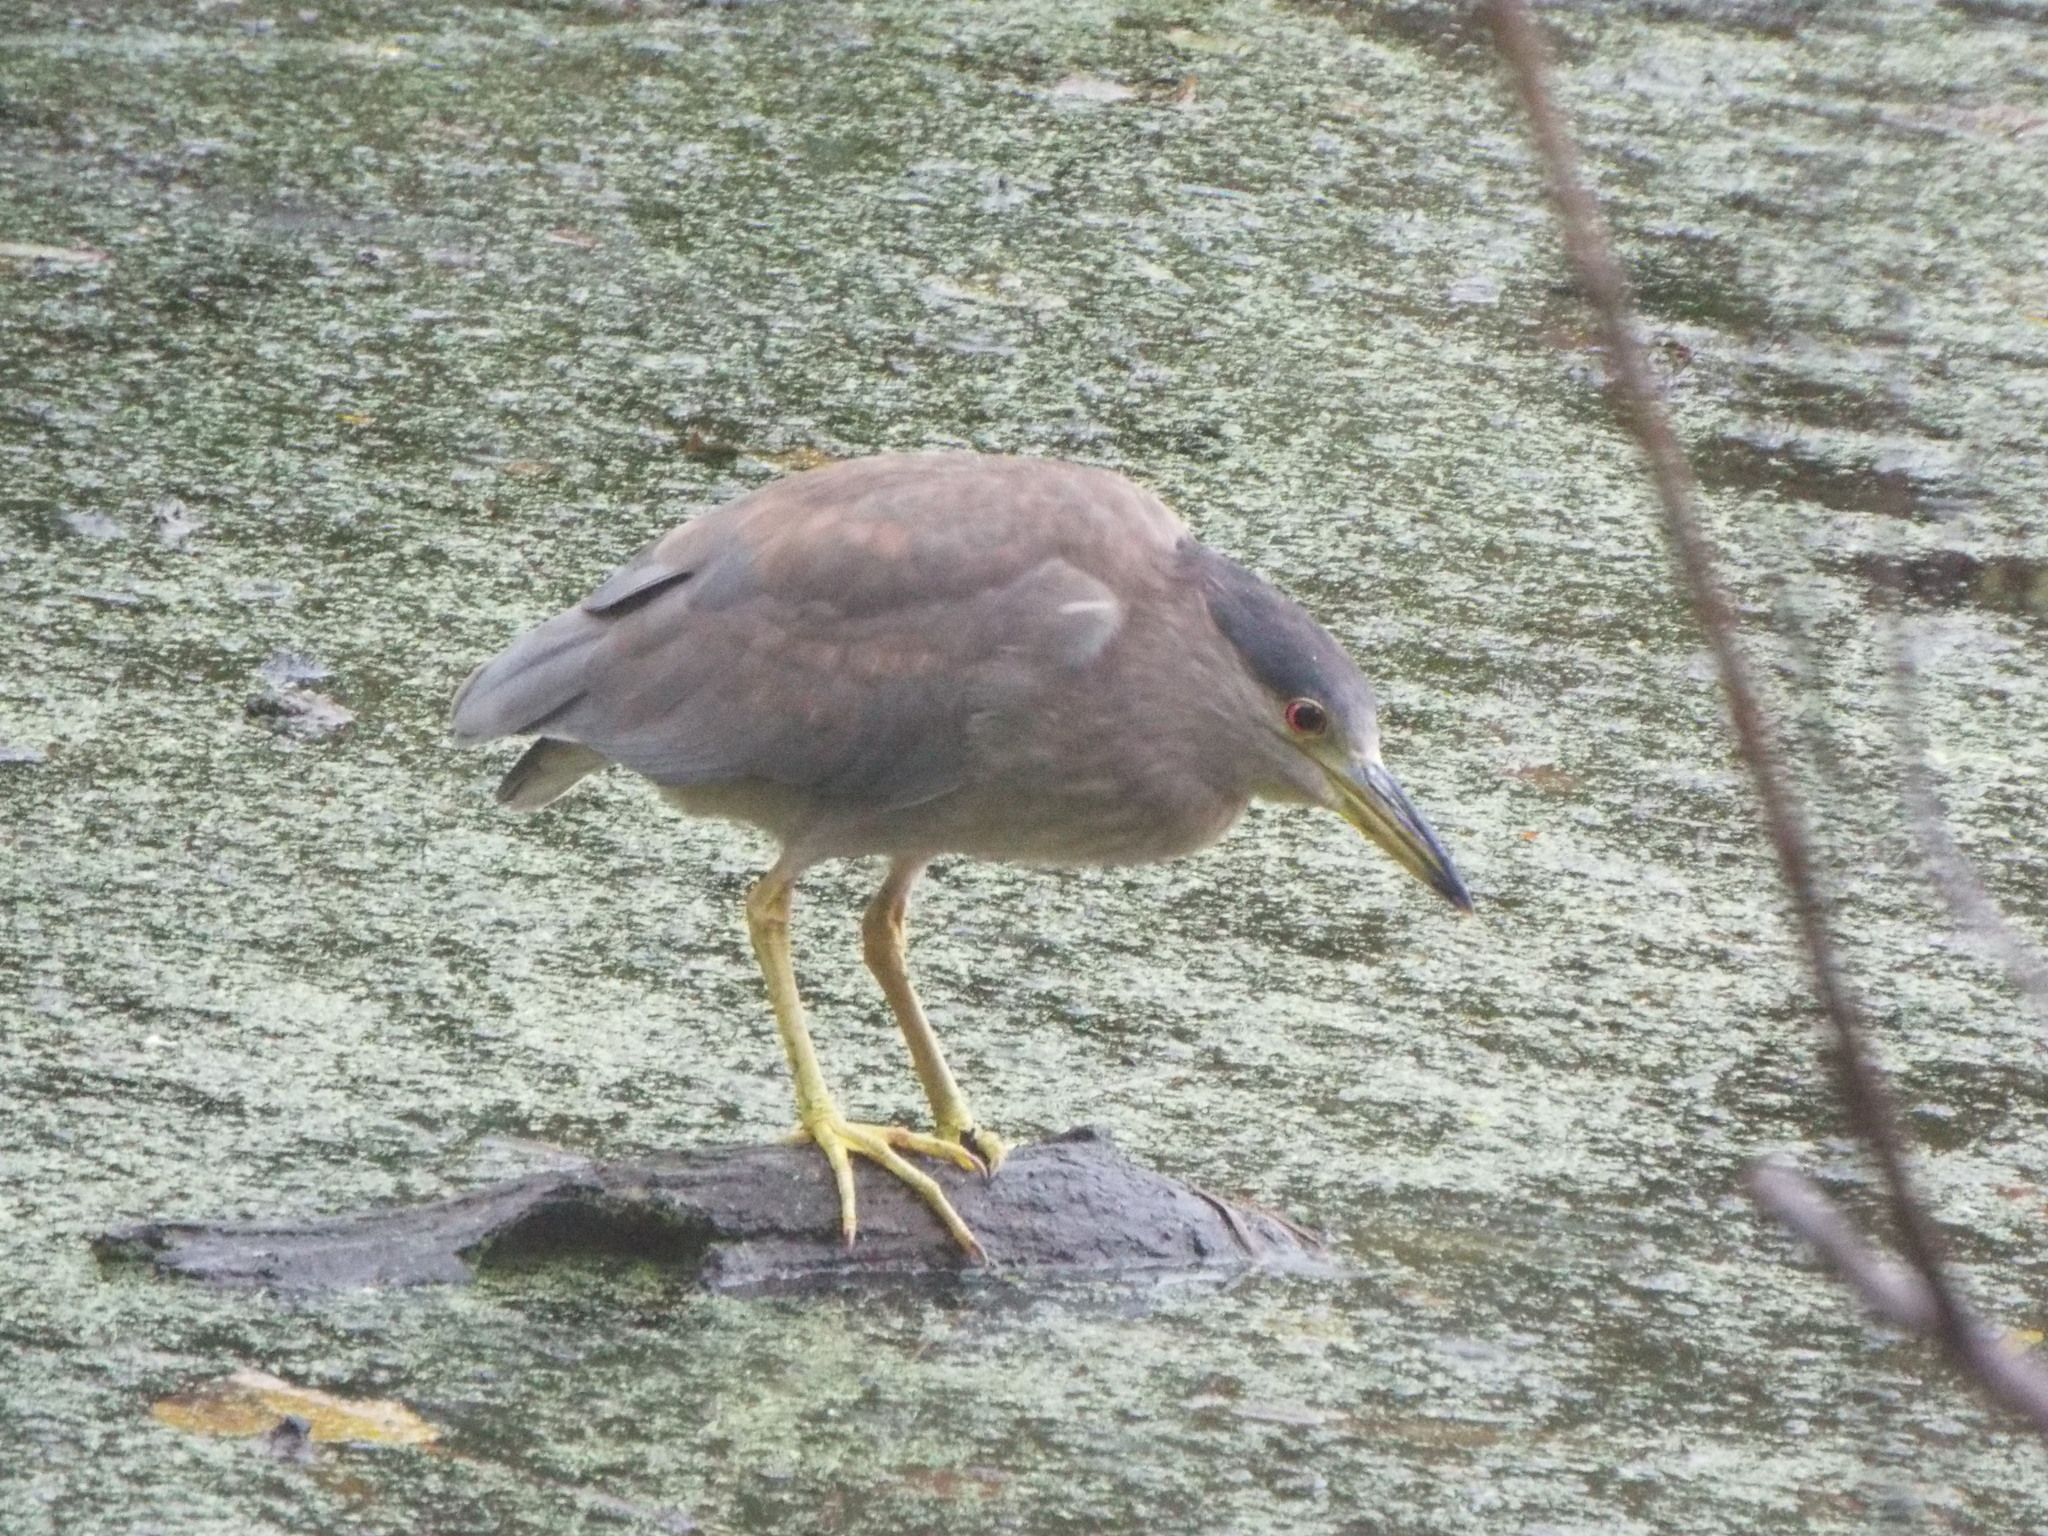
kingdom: Animalia
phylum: Chordata
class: Aves
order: Pelecaniformes
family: Ardeidae
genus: Nycticorax
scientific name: Nycticorax nycticorax
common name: Black-crowned night heron
